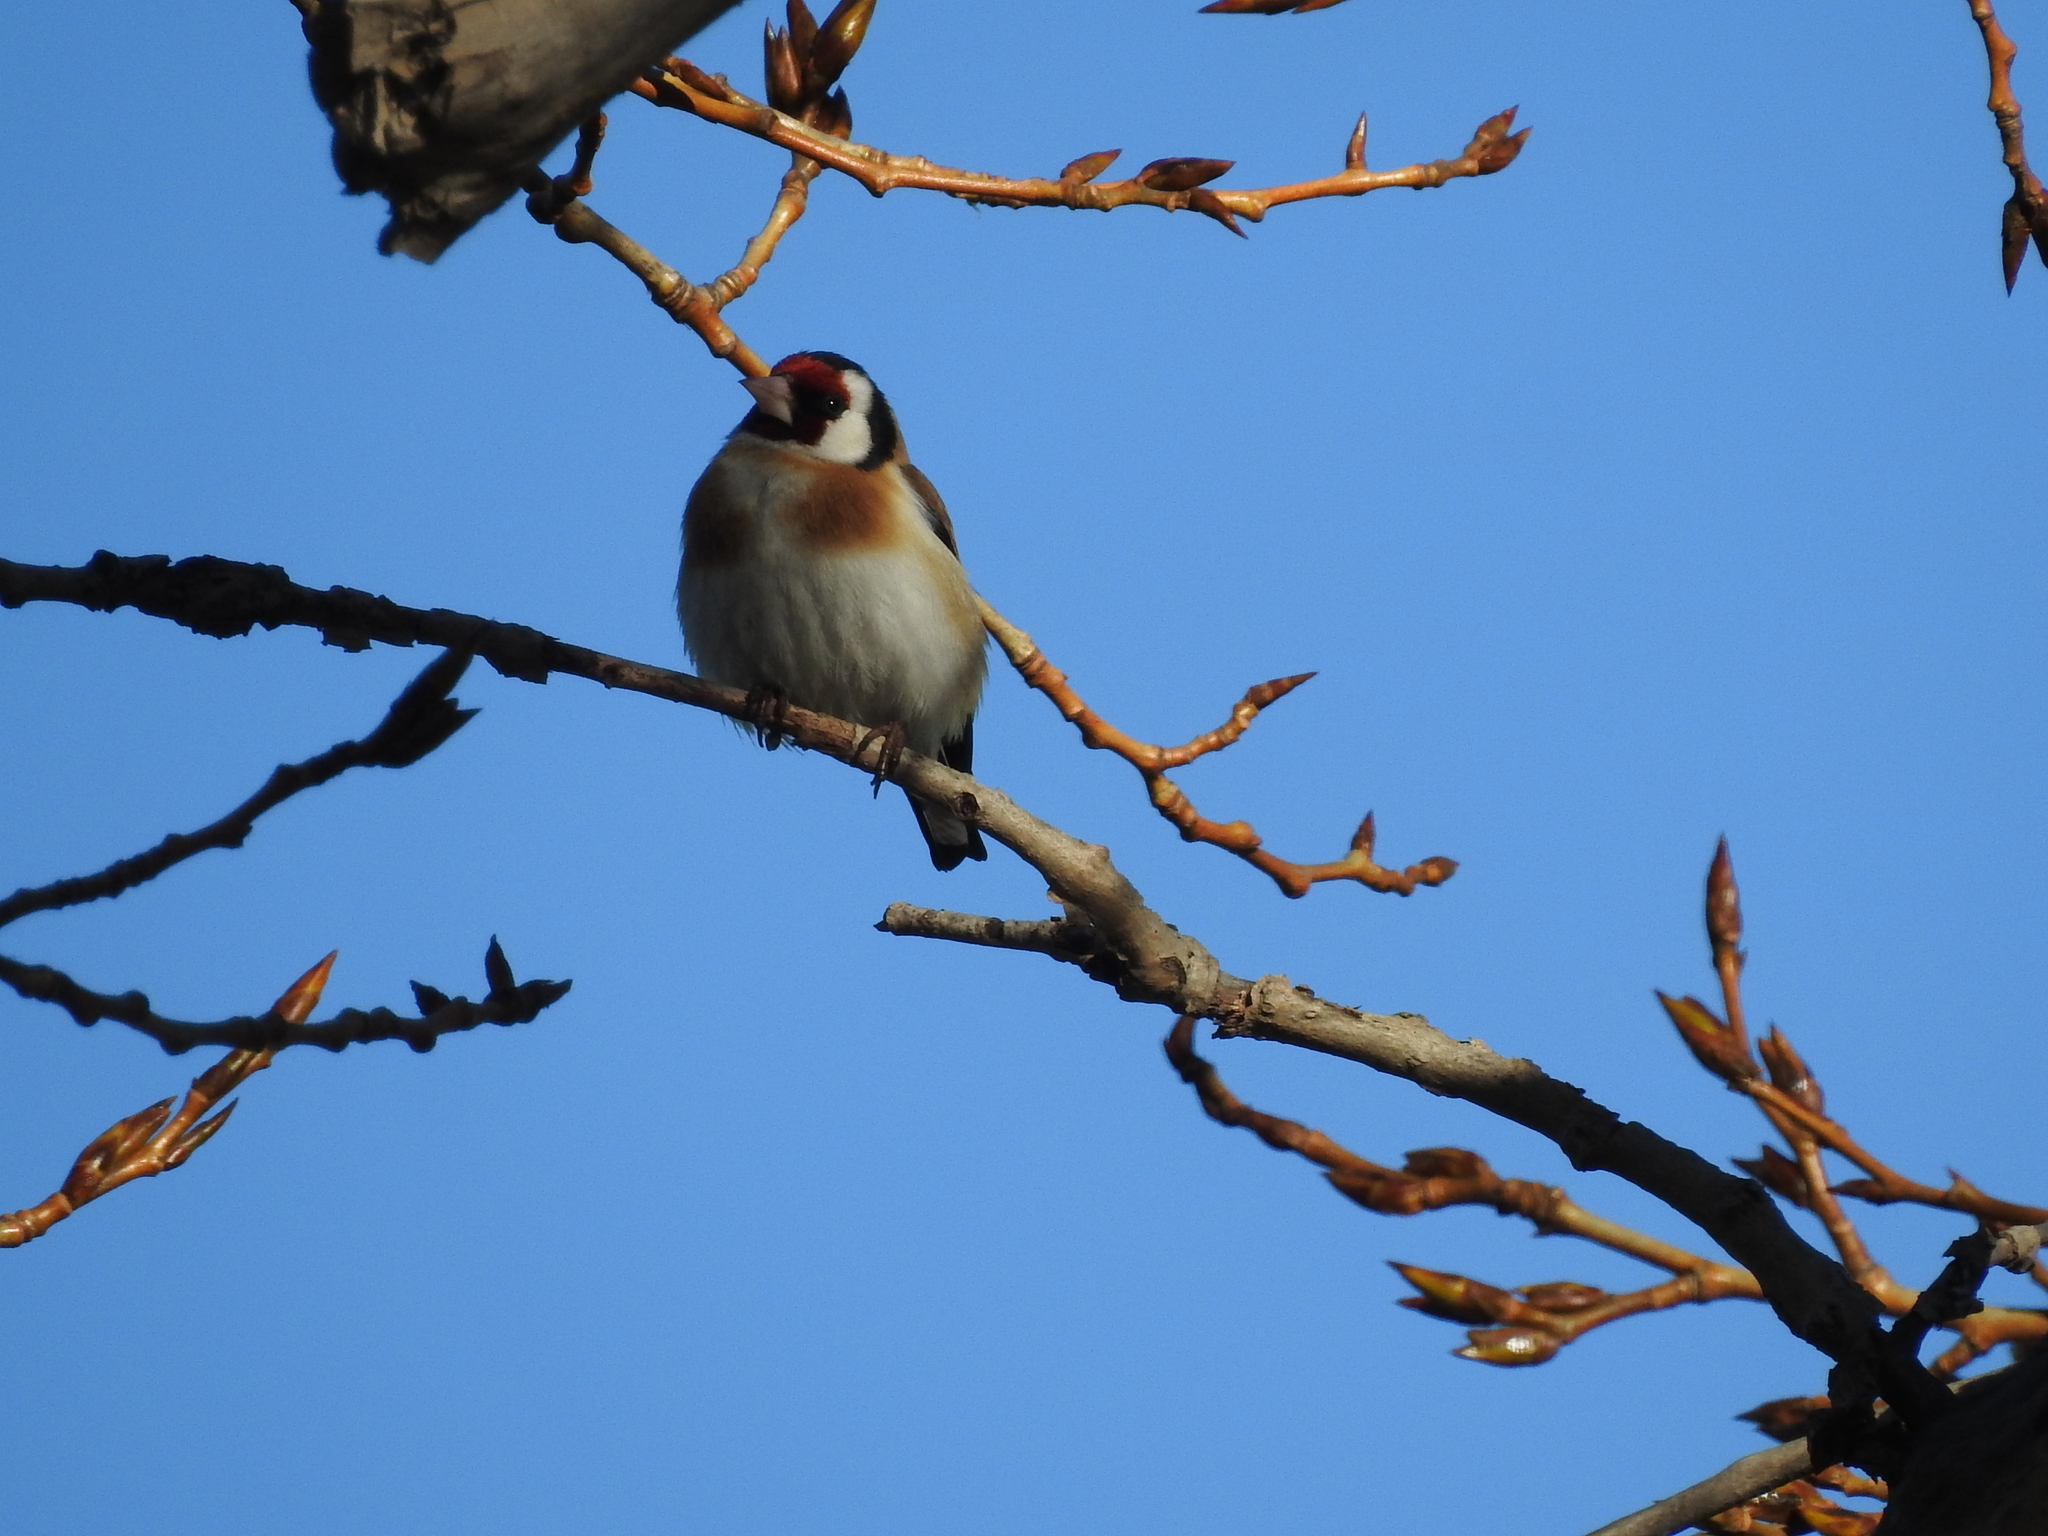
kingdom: Animalia
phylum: Chordata
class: Aves
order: Passeriformes
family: Fringillidae
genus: Carduelis
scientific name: Carduelis carduelis
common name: European goldfinch
